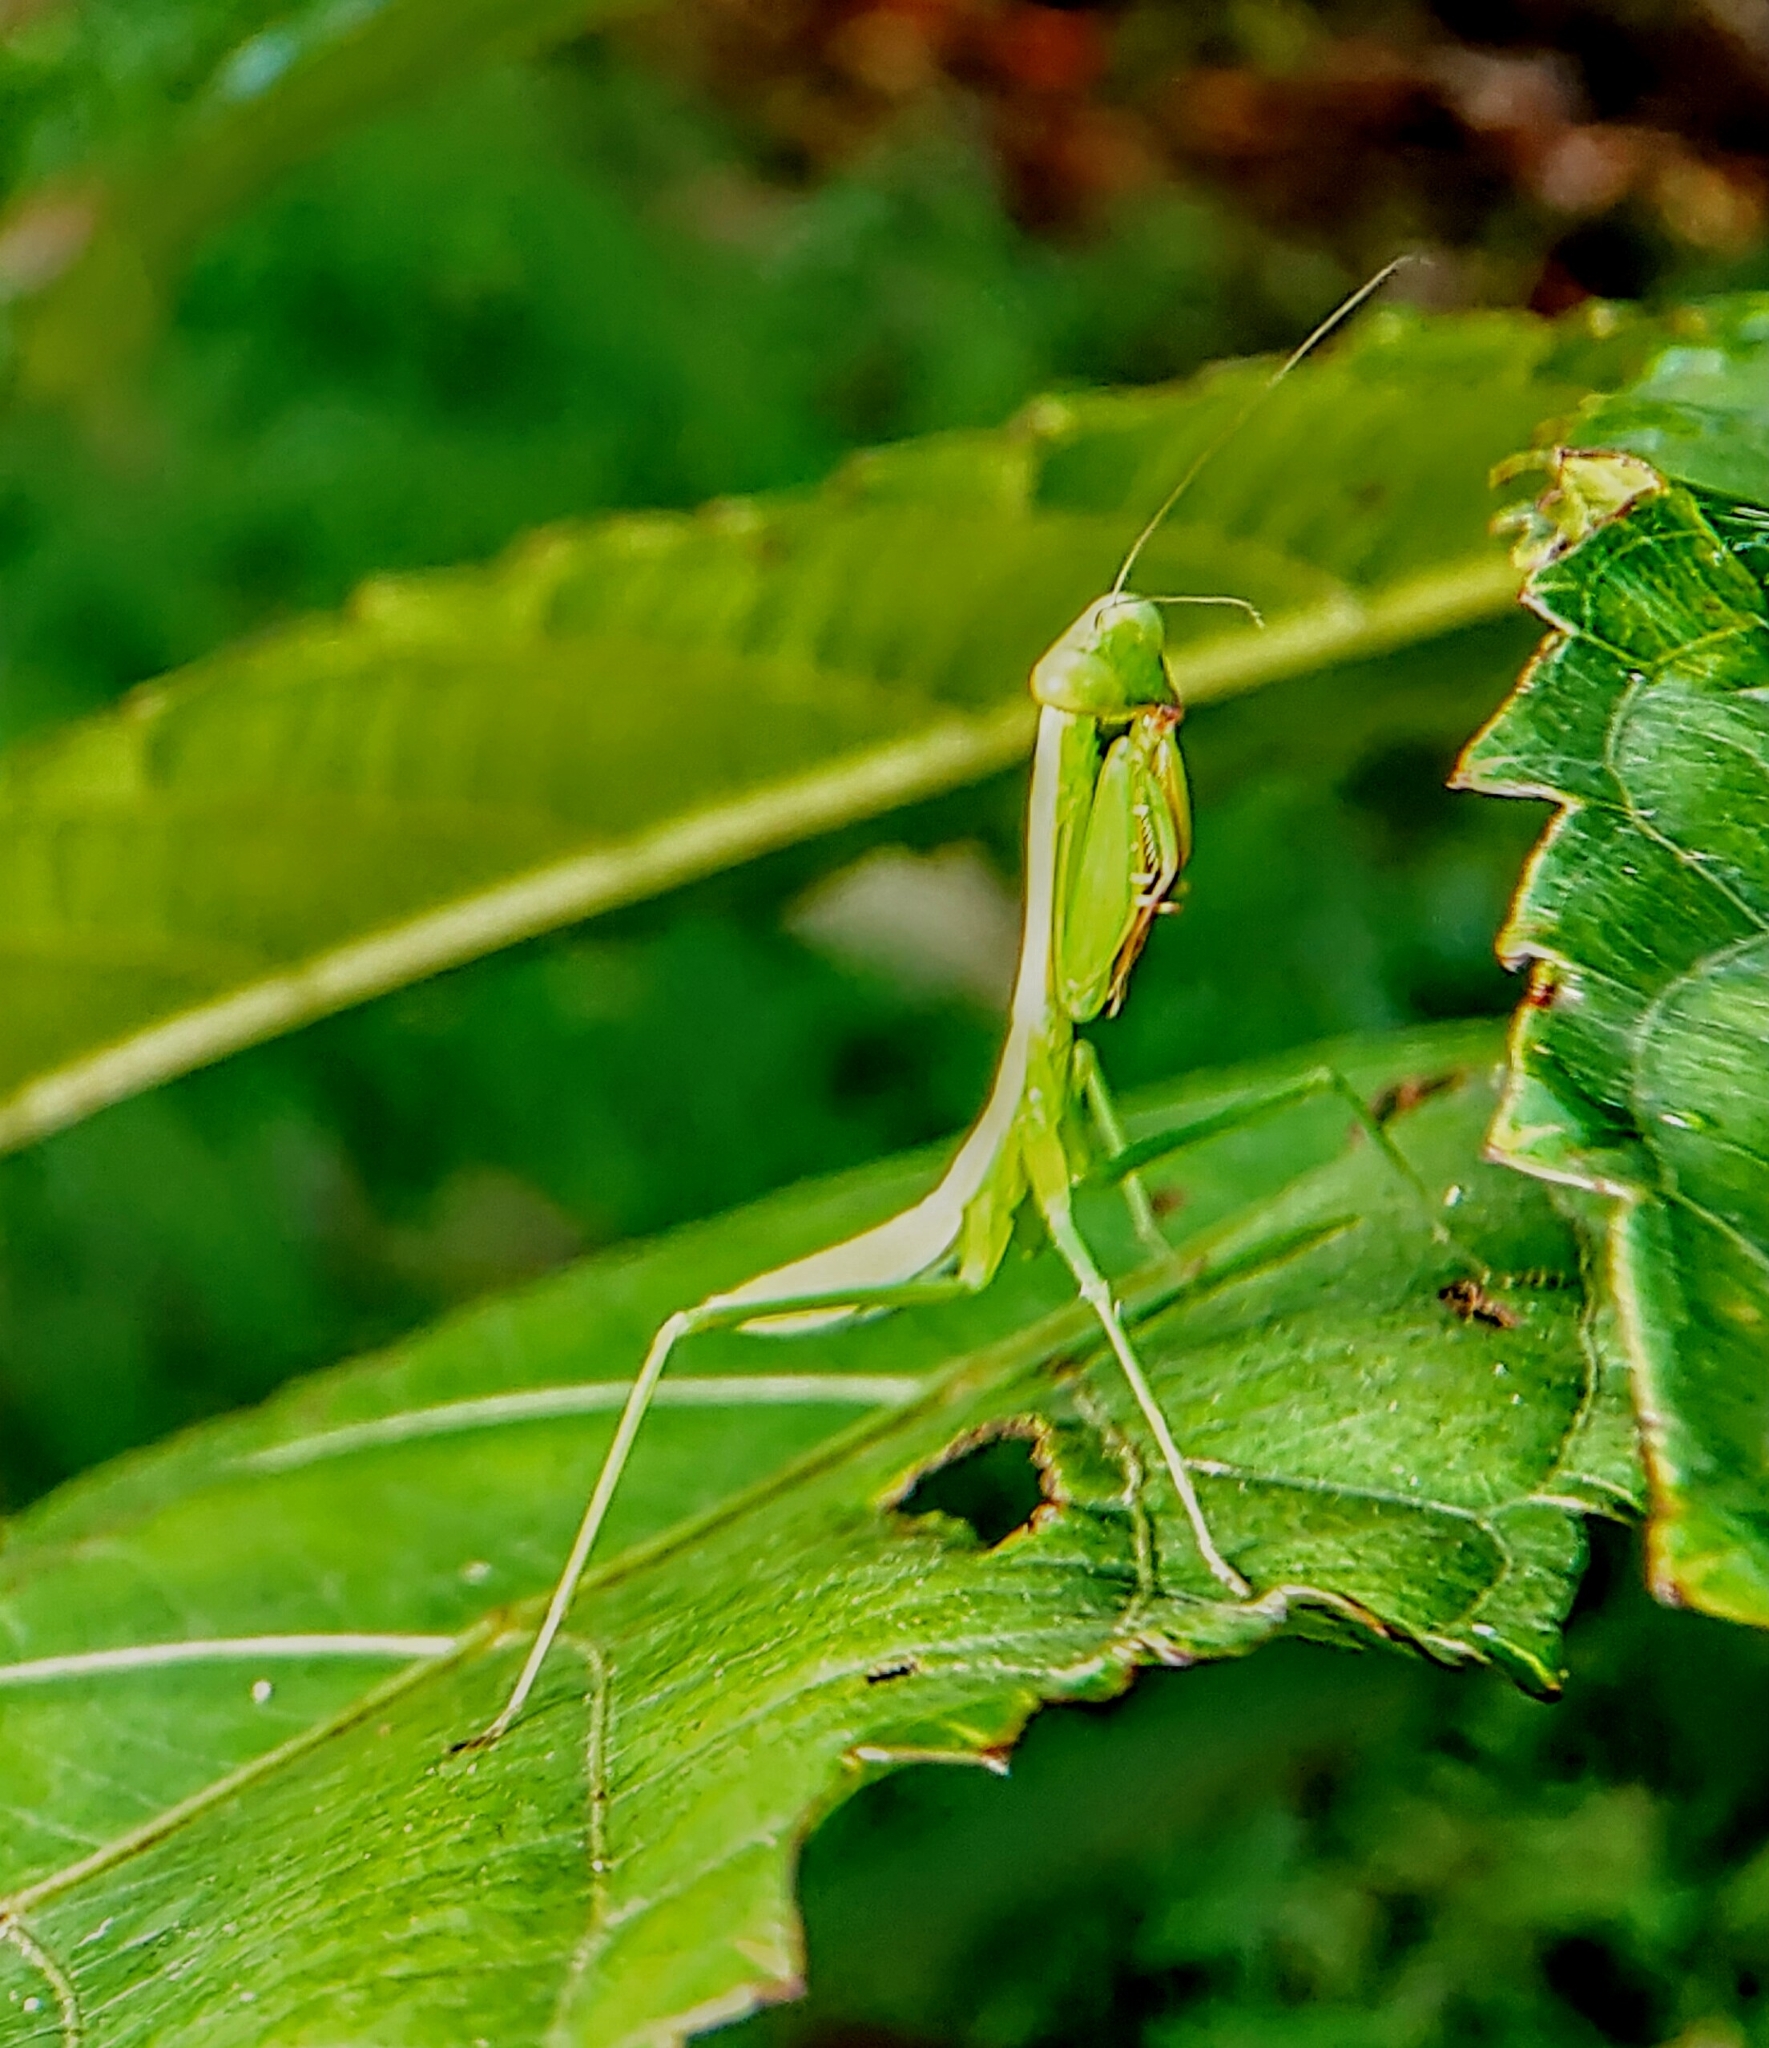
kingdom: Animalia
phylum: Arthropoda
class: Insecta
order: Mantodea
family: Mantidae
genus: Hierodula
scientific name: Hierodula venosa
